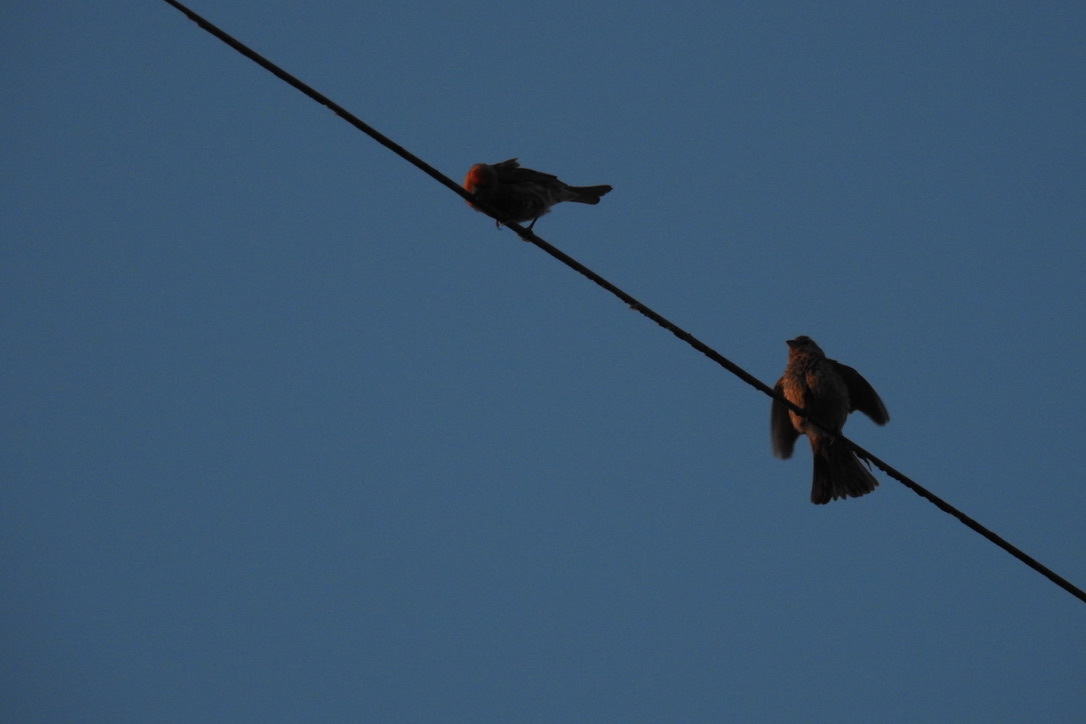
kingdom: Animalia
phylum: Chordata
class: Aves
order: Passeriformes
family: Fringillidae
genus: Haemorhous
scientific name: Haemorhous mexicanus
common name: House finch
